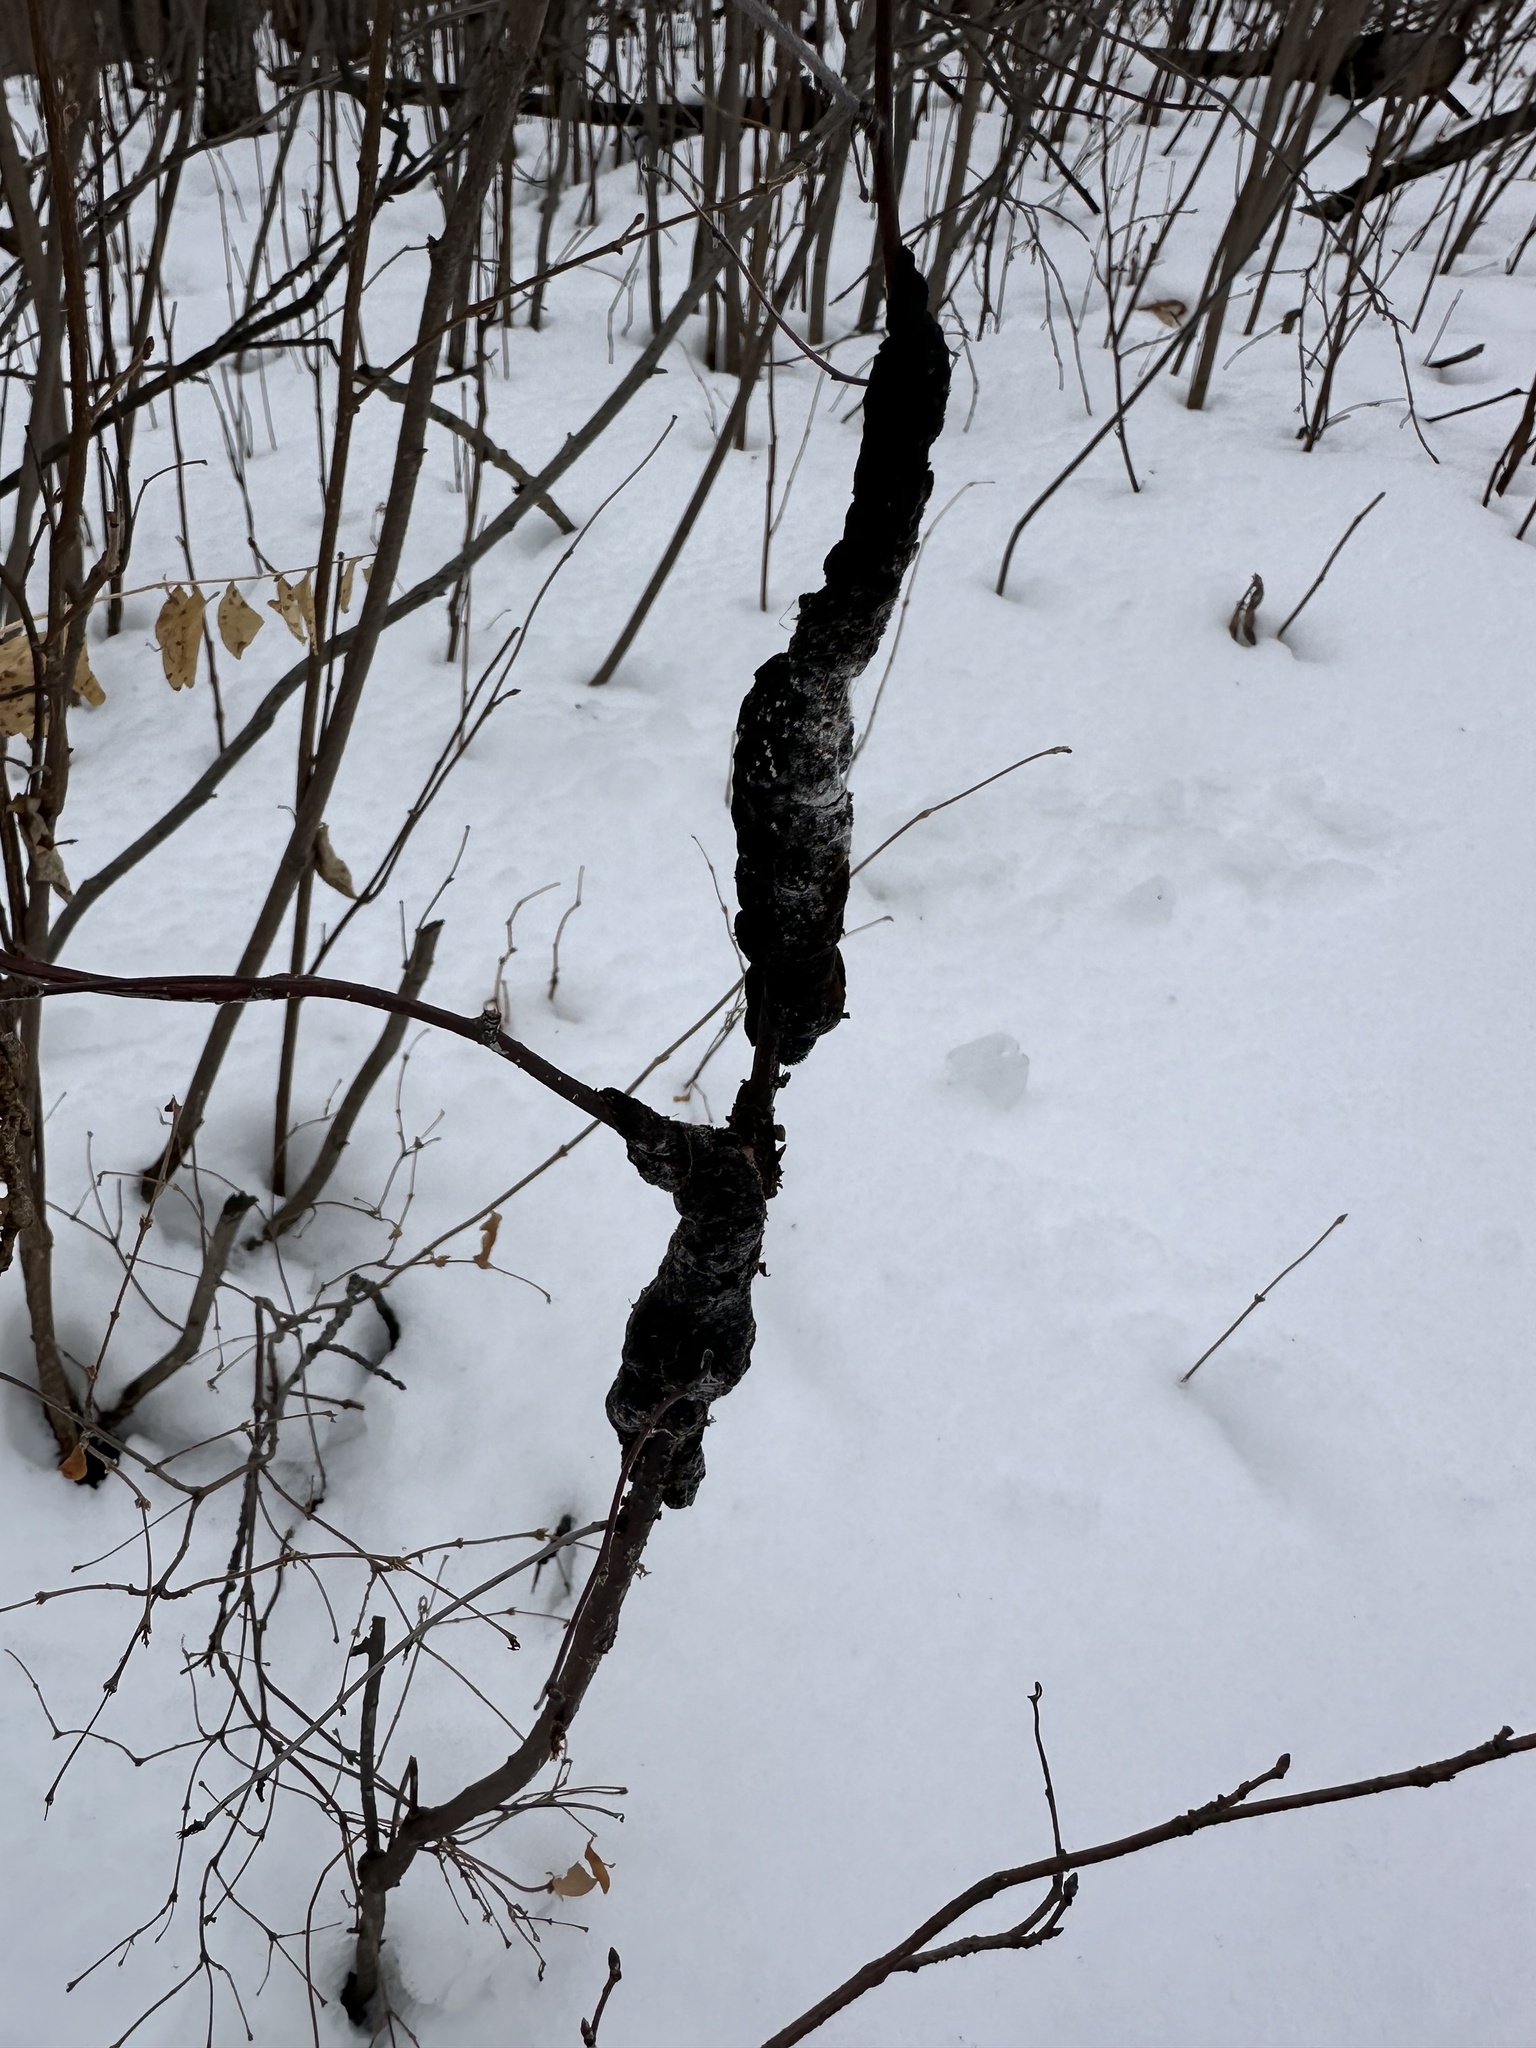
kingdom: Fungi
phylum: Ascomycota
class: Dothideomycetes
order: Venturiales
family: Venturiaceae
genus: Apiosporina
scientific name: Apiosporina morbosa
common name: Black knot
